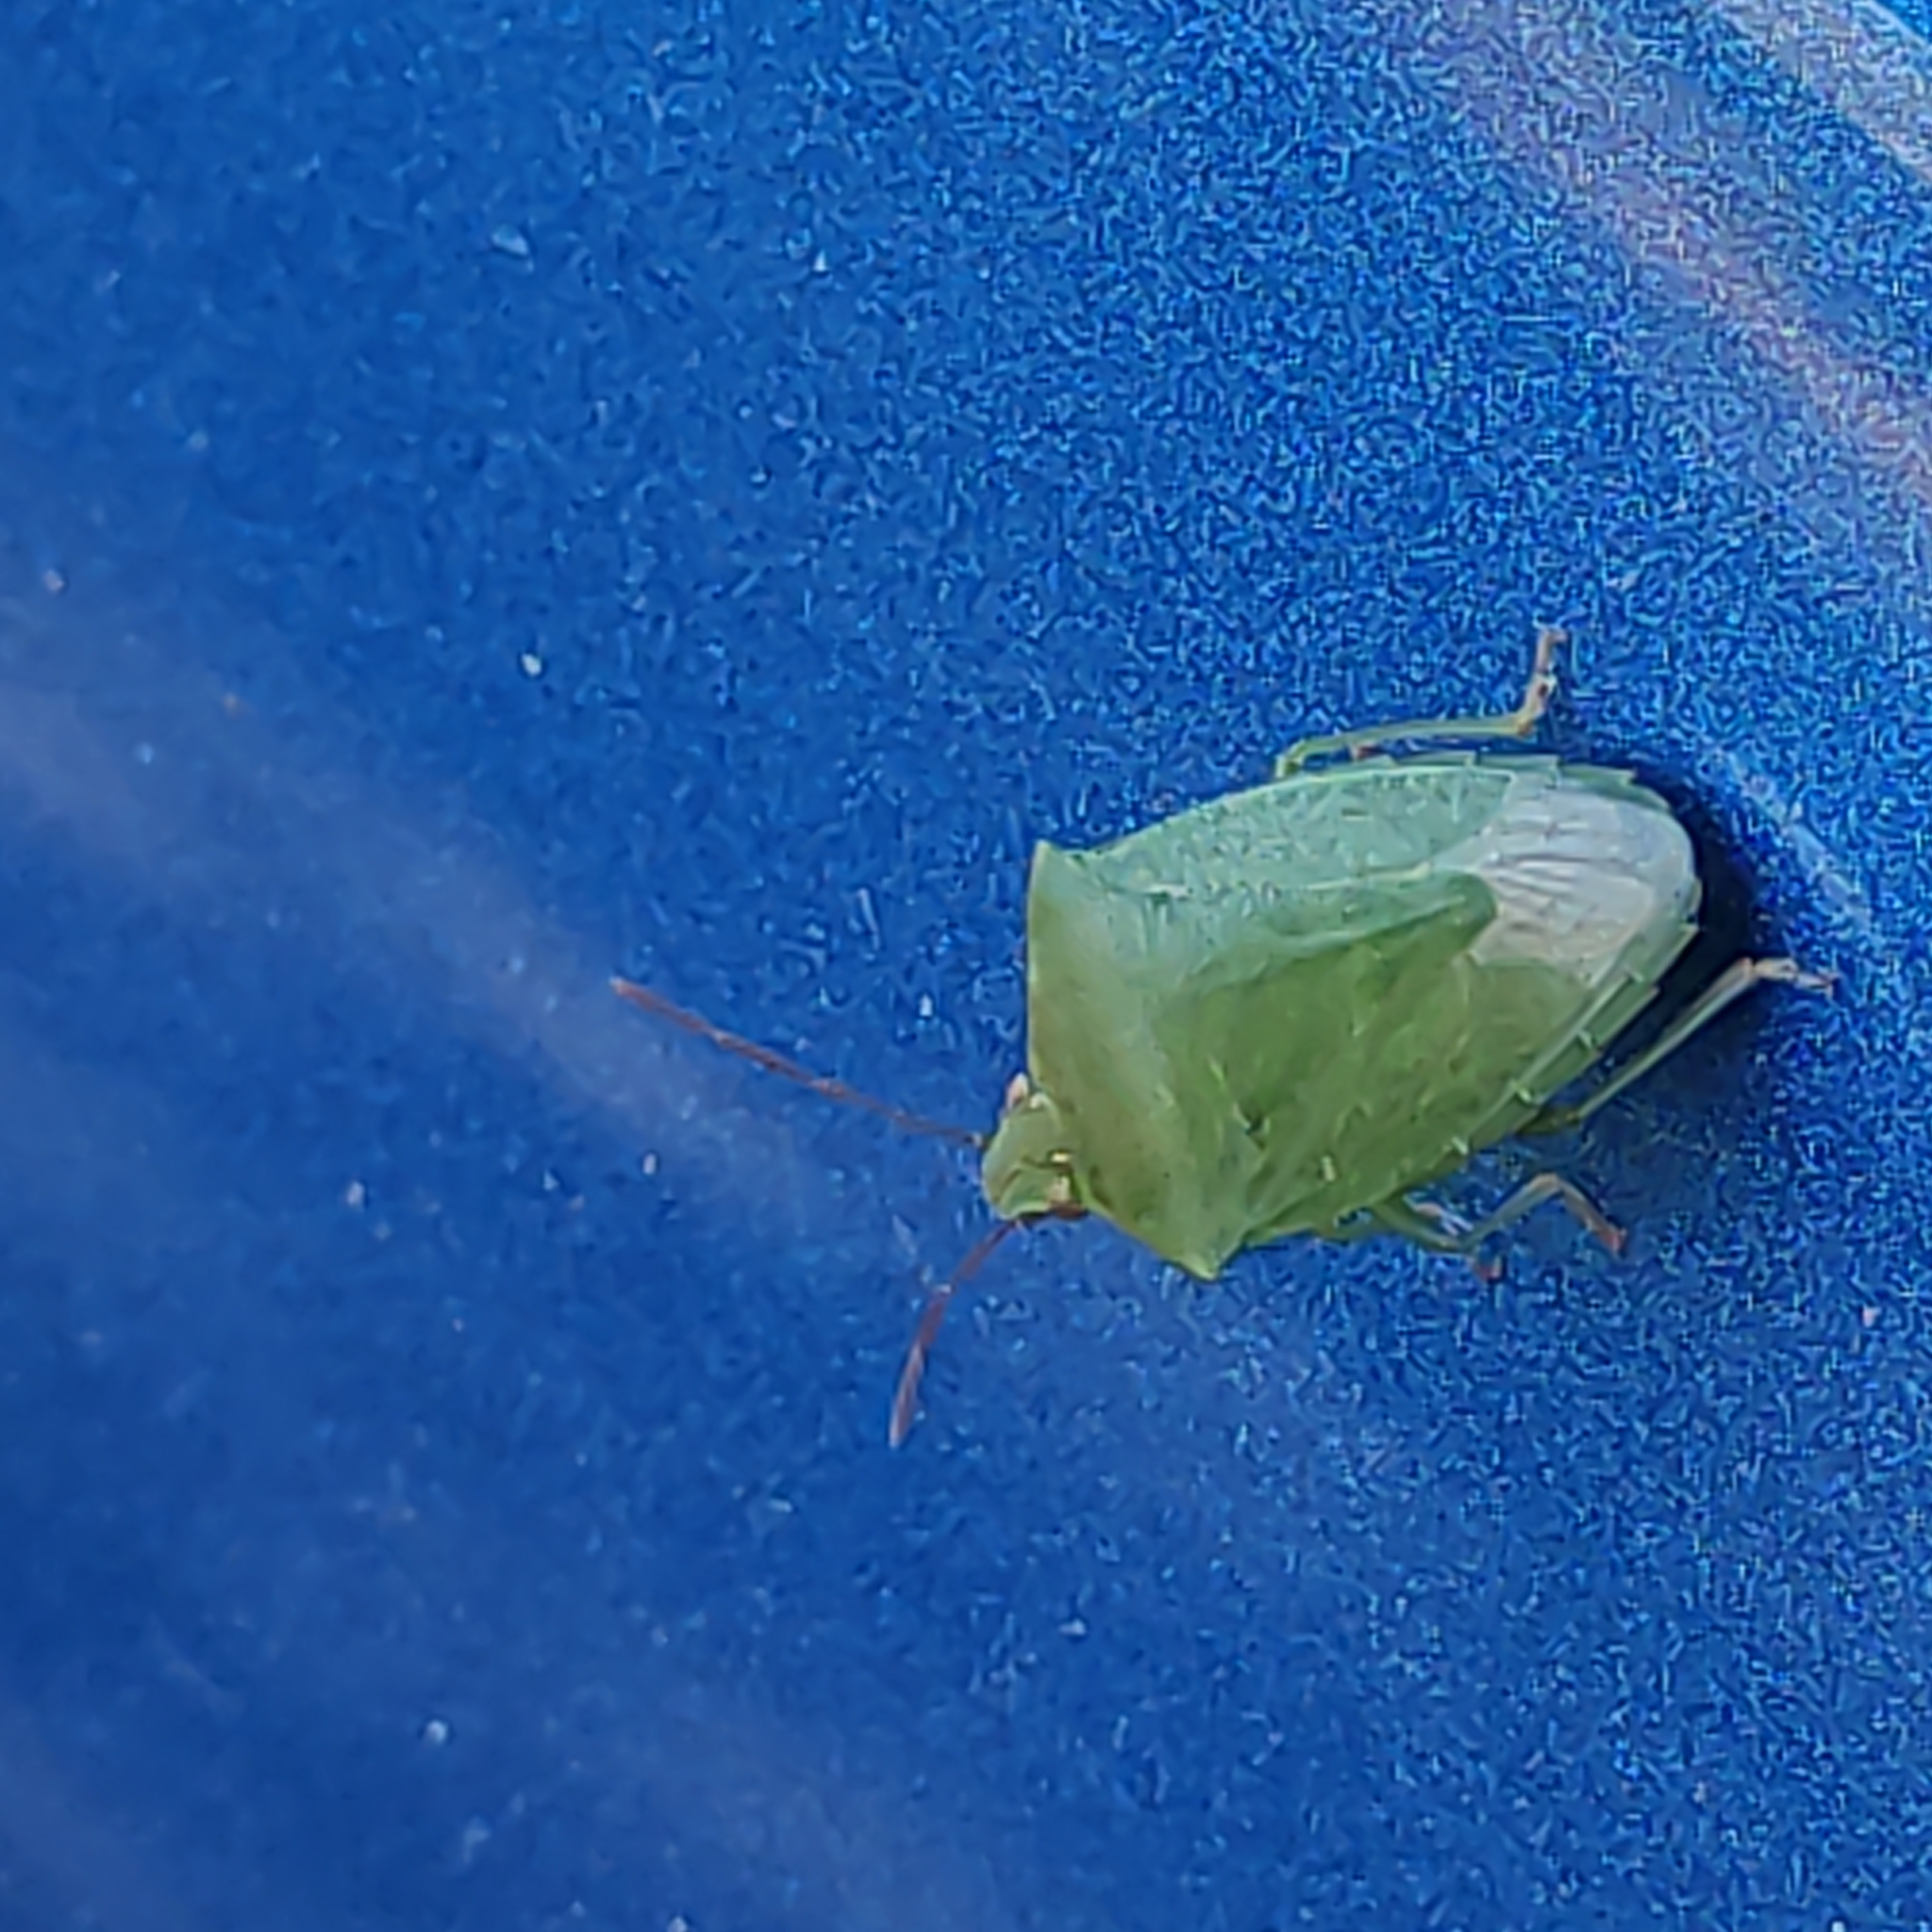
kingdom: Animalia
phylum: Arthropoda
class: Insecta
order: Hemiptera
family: Pentatomidae
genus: Cuspicona
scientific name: Cuspicona simplex
